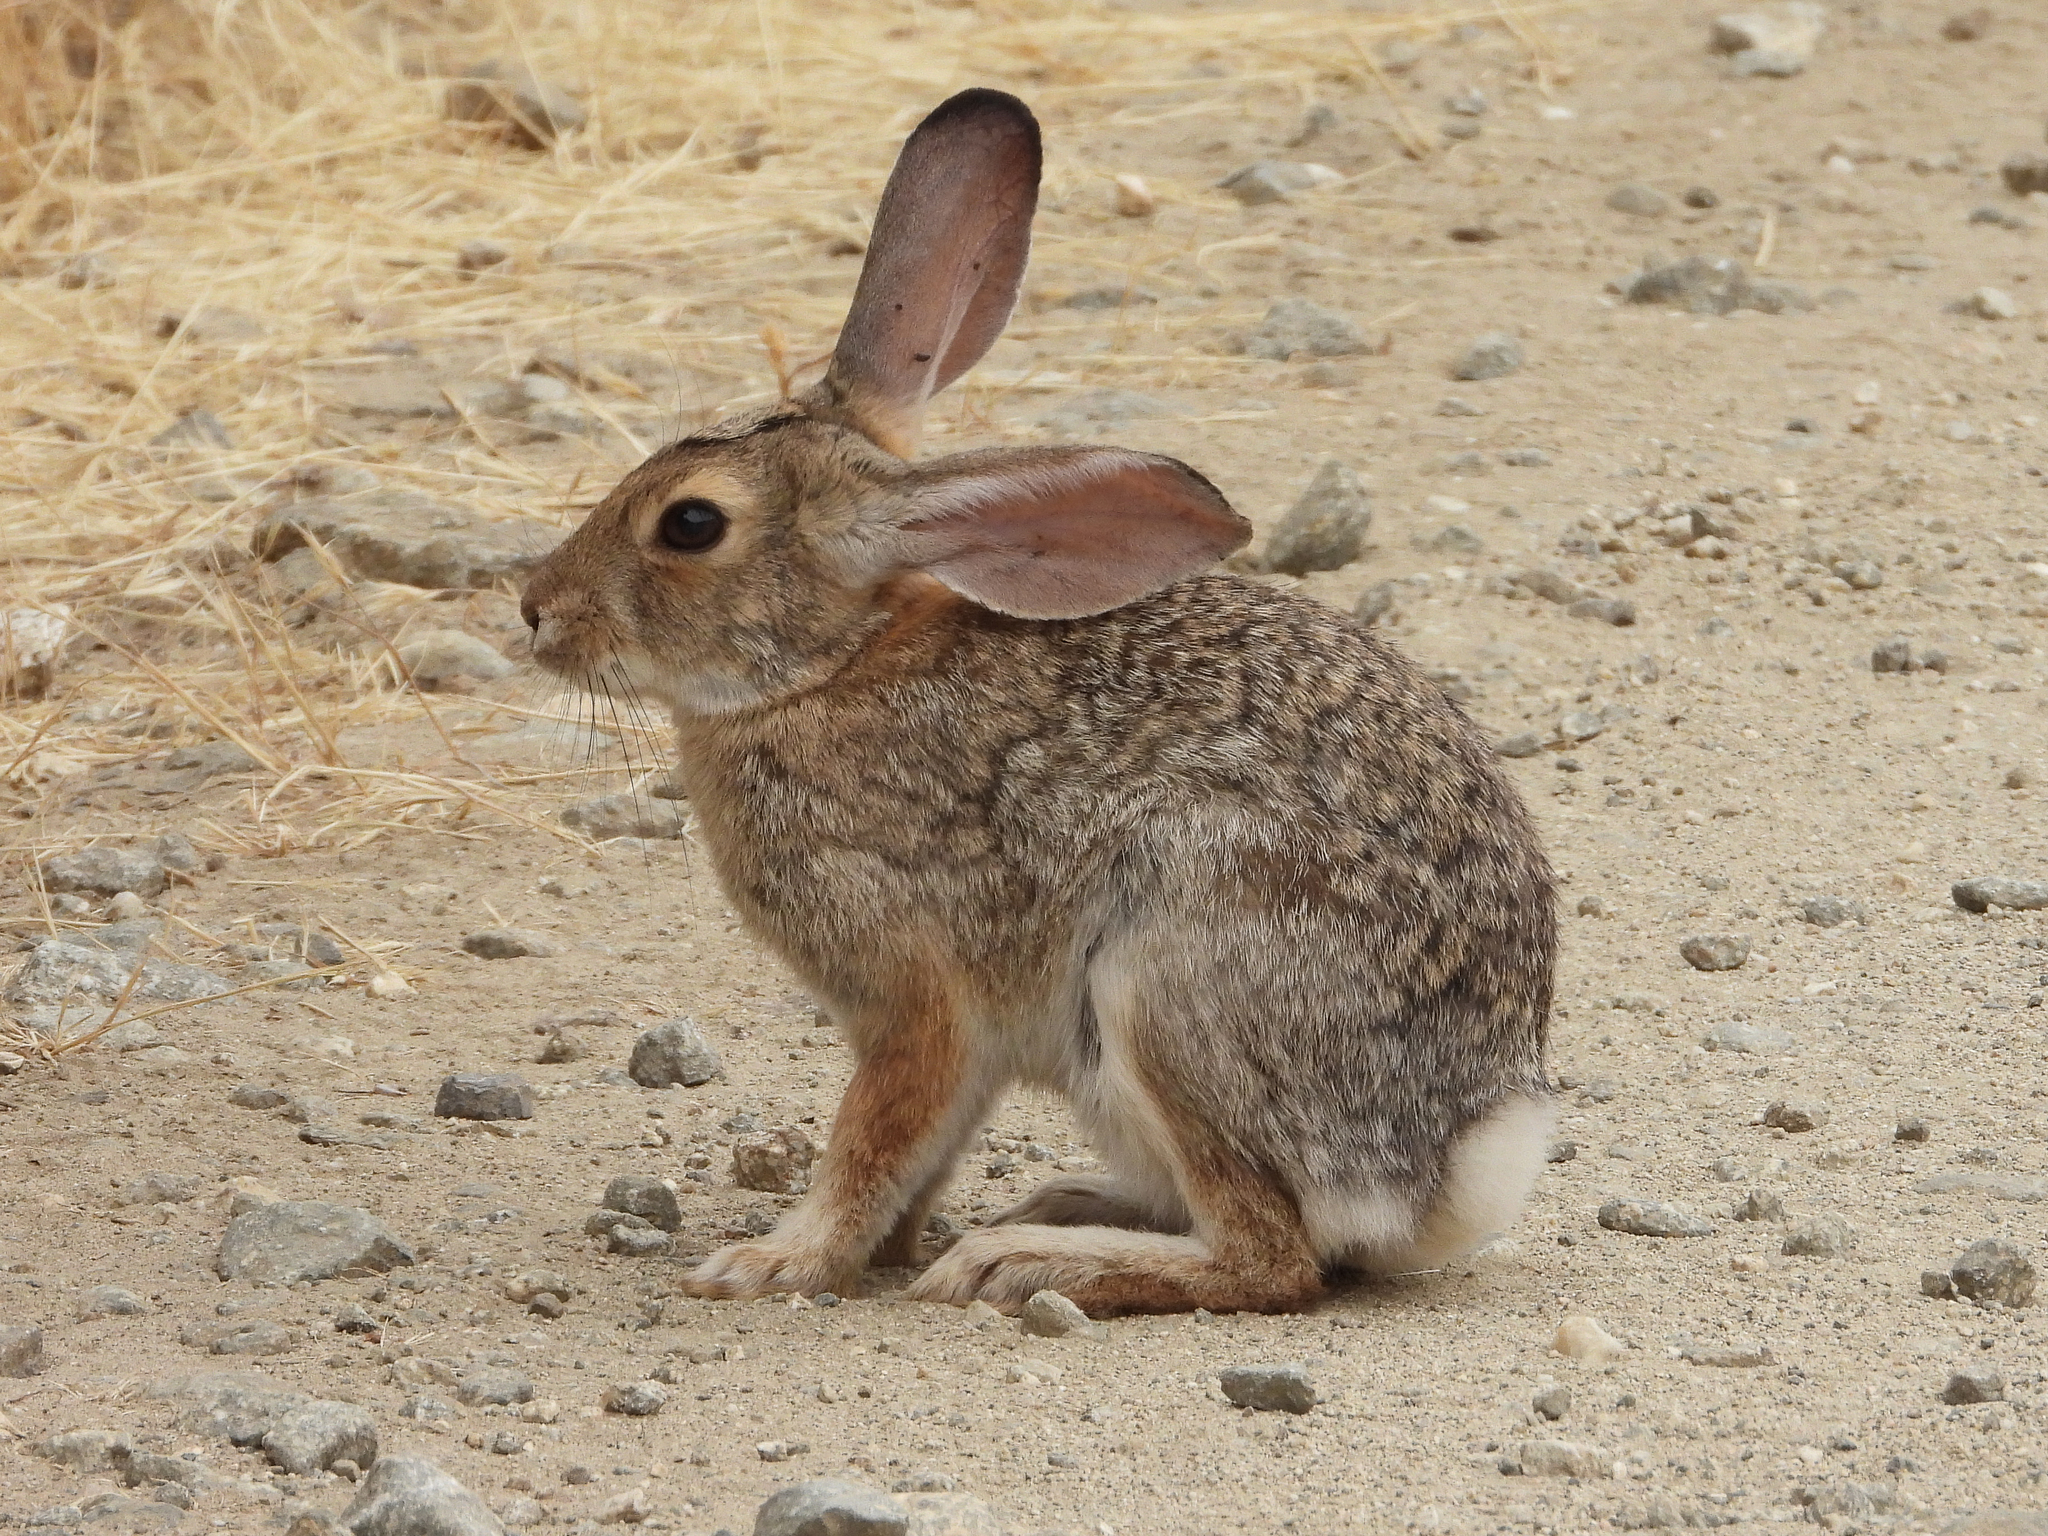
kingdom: Animalia
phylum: Chordata
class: Mammalia
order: Lagomorpha
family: Leporidae
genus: Sylvilagus
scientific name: Sylvilagus audubonii
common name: Desert cottontail
